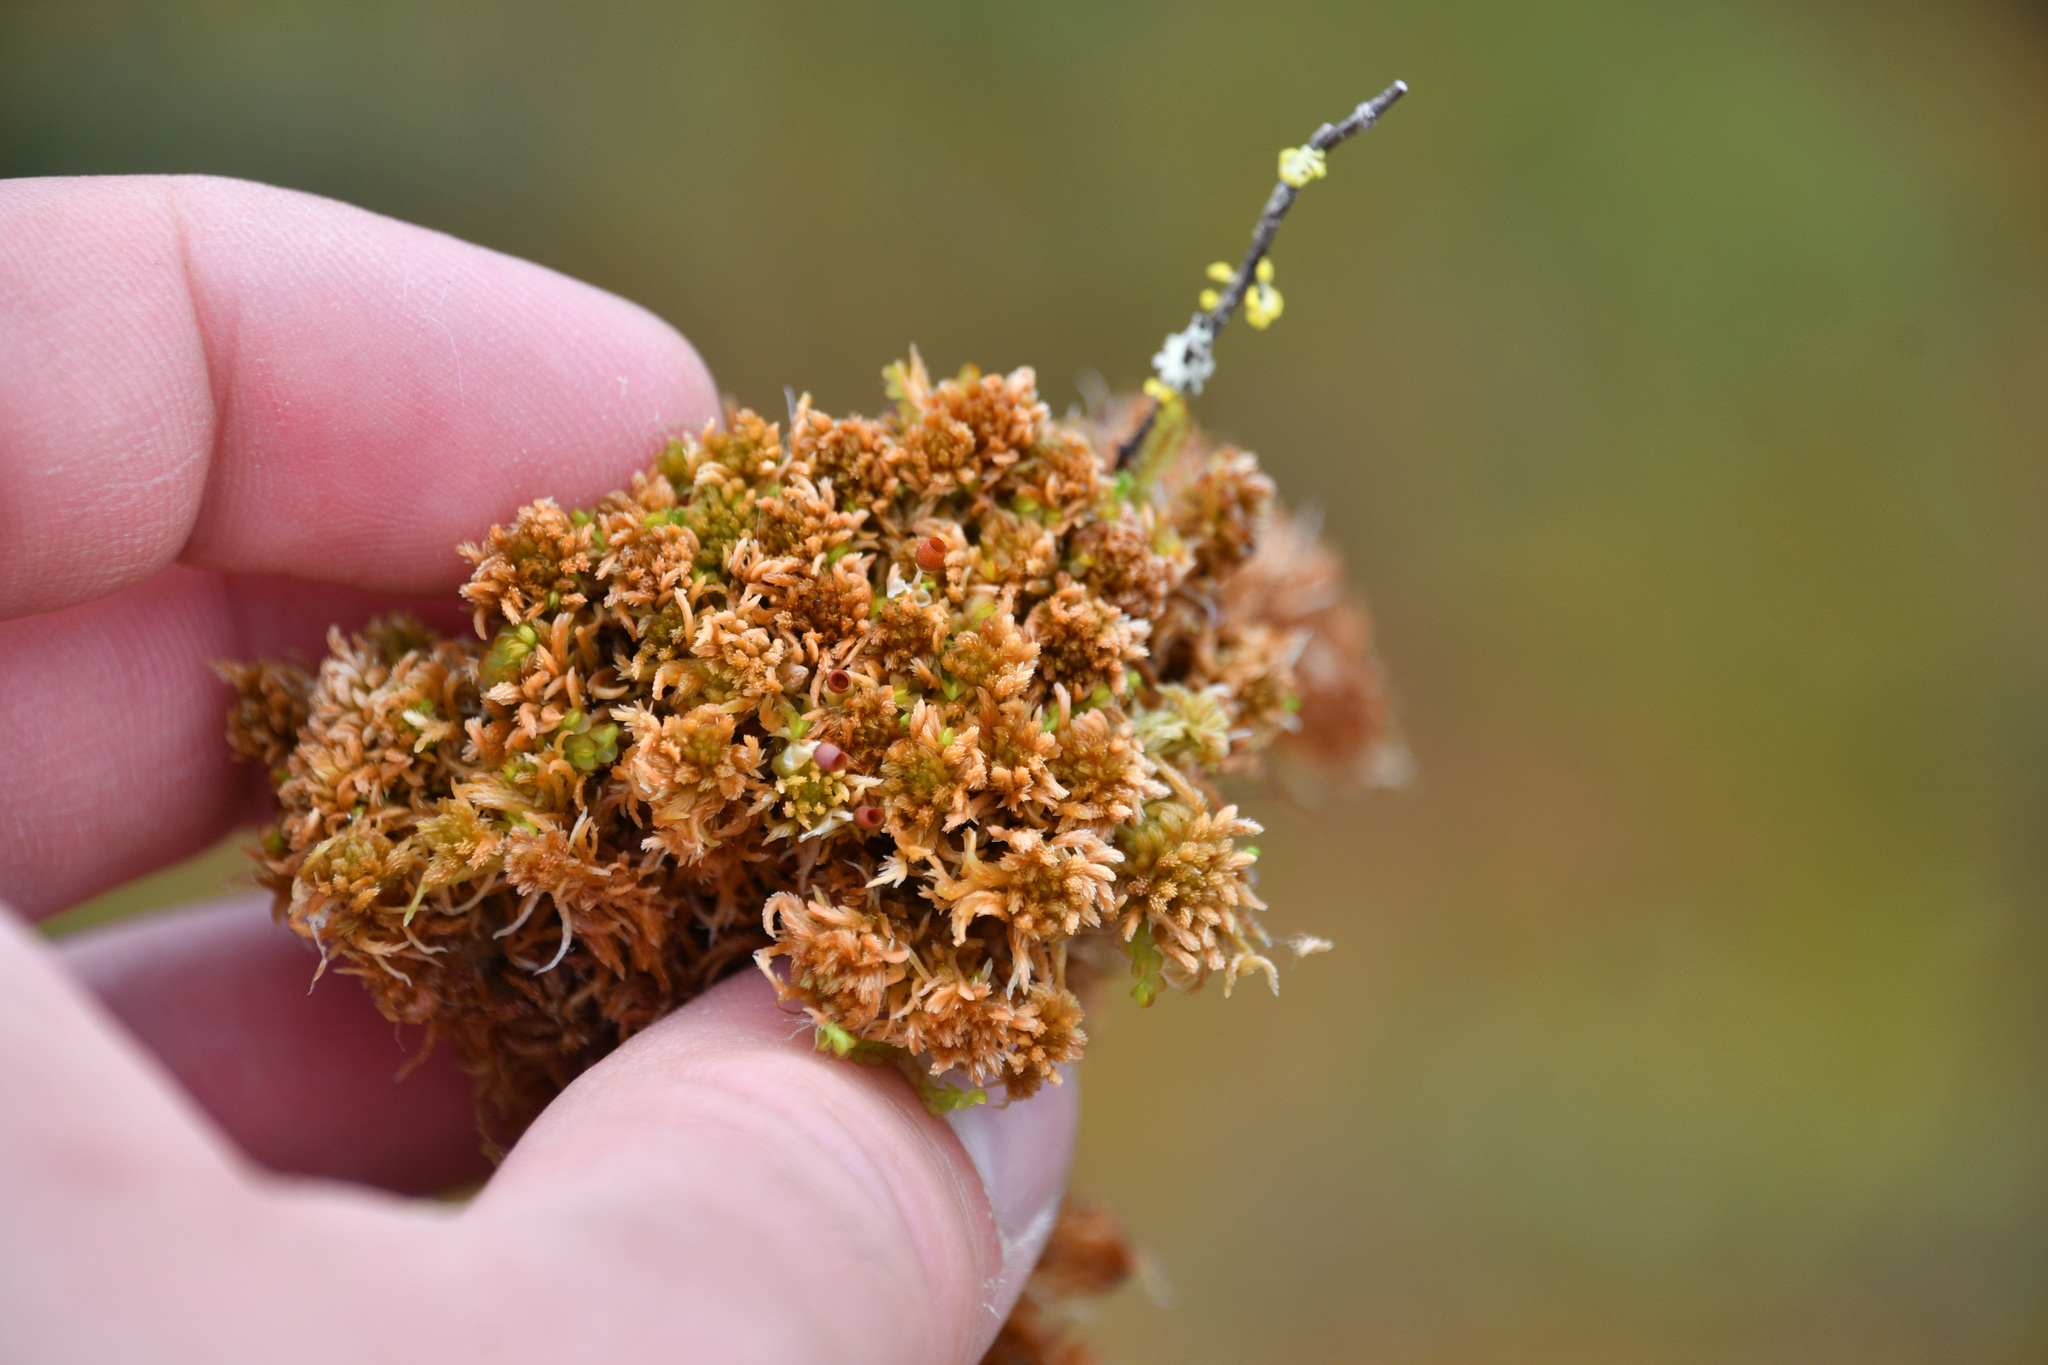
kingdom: Plantae
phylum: Bryophyta
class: Sphagnopsida
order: Sphagnales
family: Sphagnaceae
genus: Sphagnum
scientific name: Sphagnum fuscum
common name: Brown peat moss
